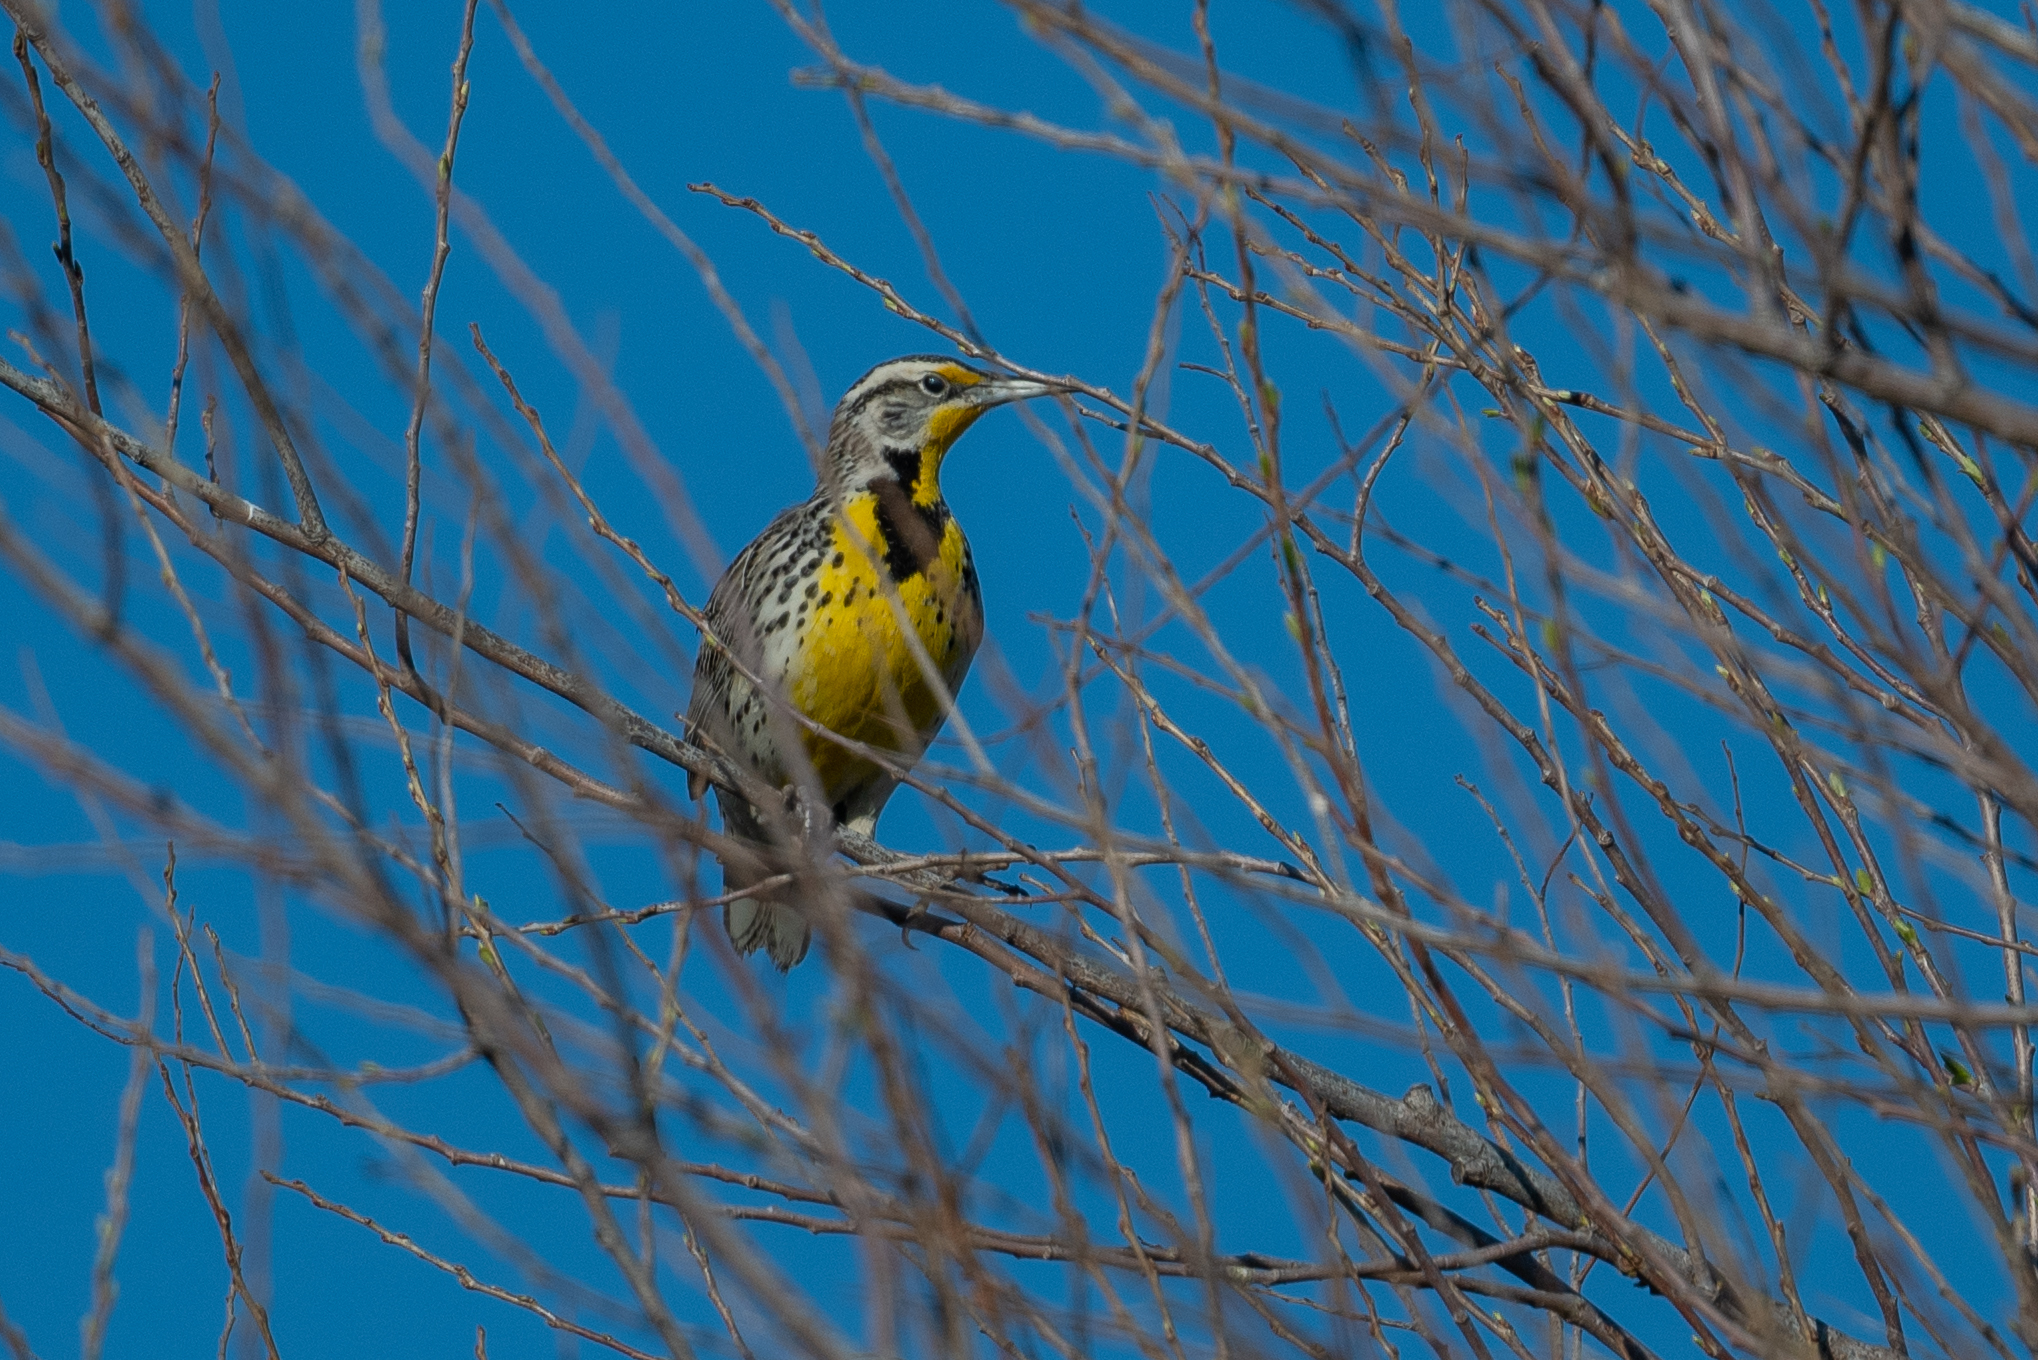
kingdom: Animalia
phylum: Chordata
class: Aves
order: Passeriformes
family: Icteridae
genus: Sturnella
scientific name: Sturnella neglecta
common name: Western meadowlark
